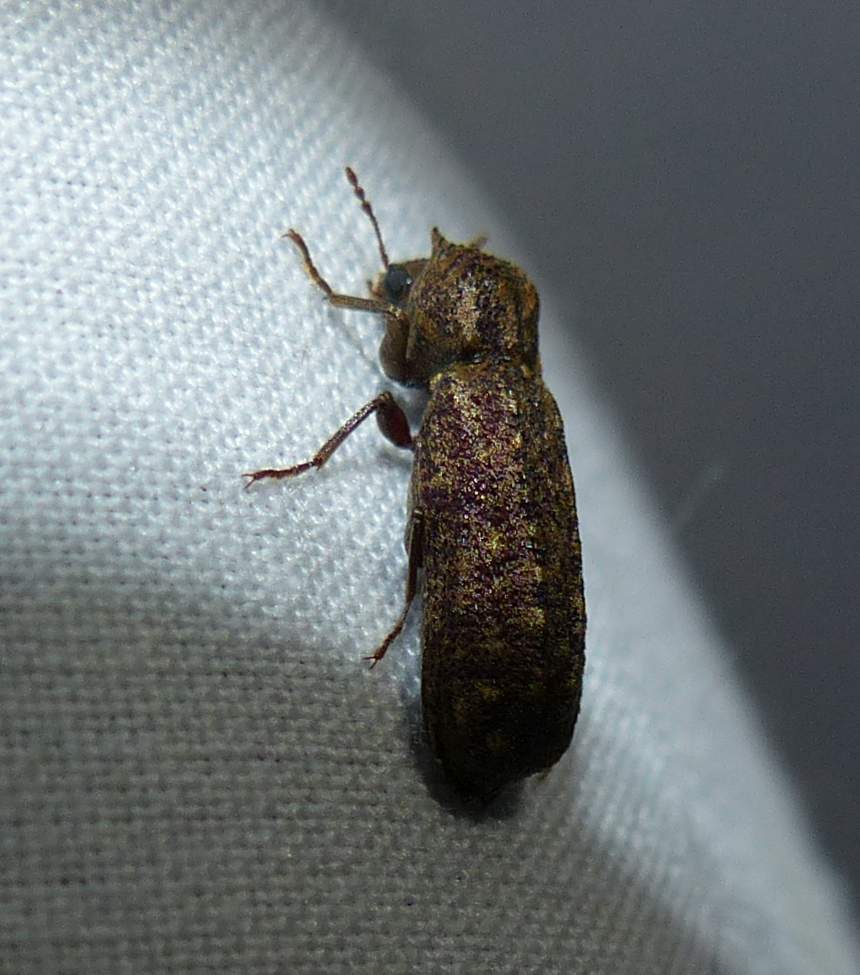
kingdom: Animalia
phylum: Arthropoda
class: Insecta
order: Coleoptera
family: Bostrichidae
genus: Lichenophanes
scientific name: Lichenophanes bicornis
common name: Two-horned powder-post beetle
